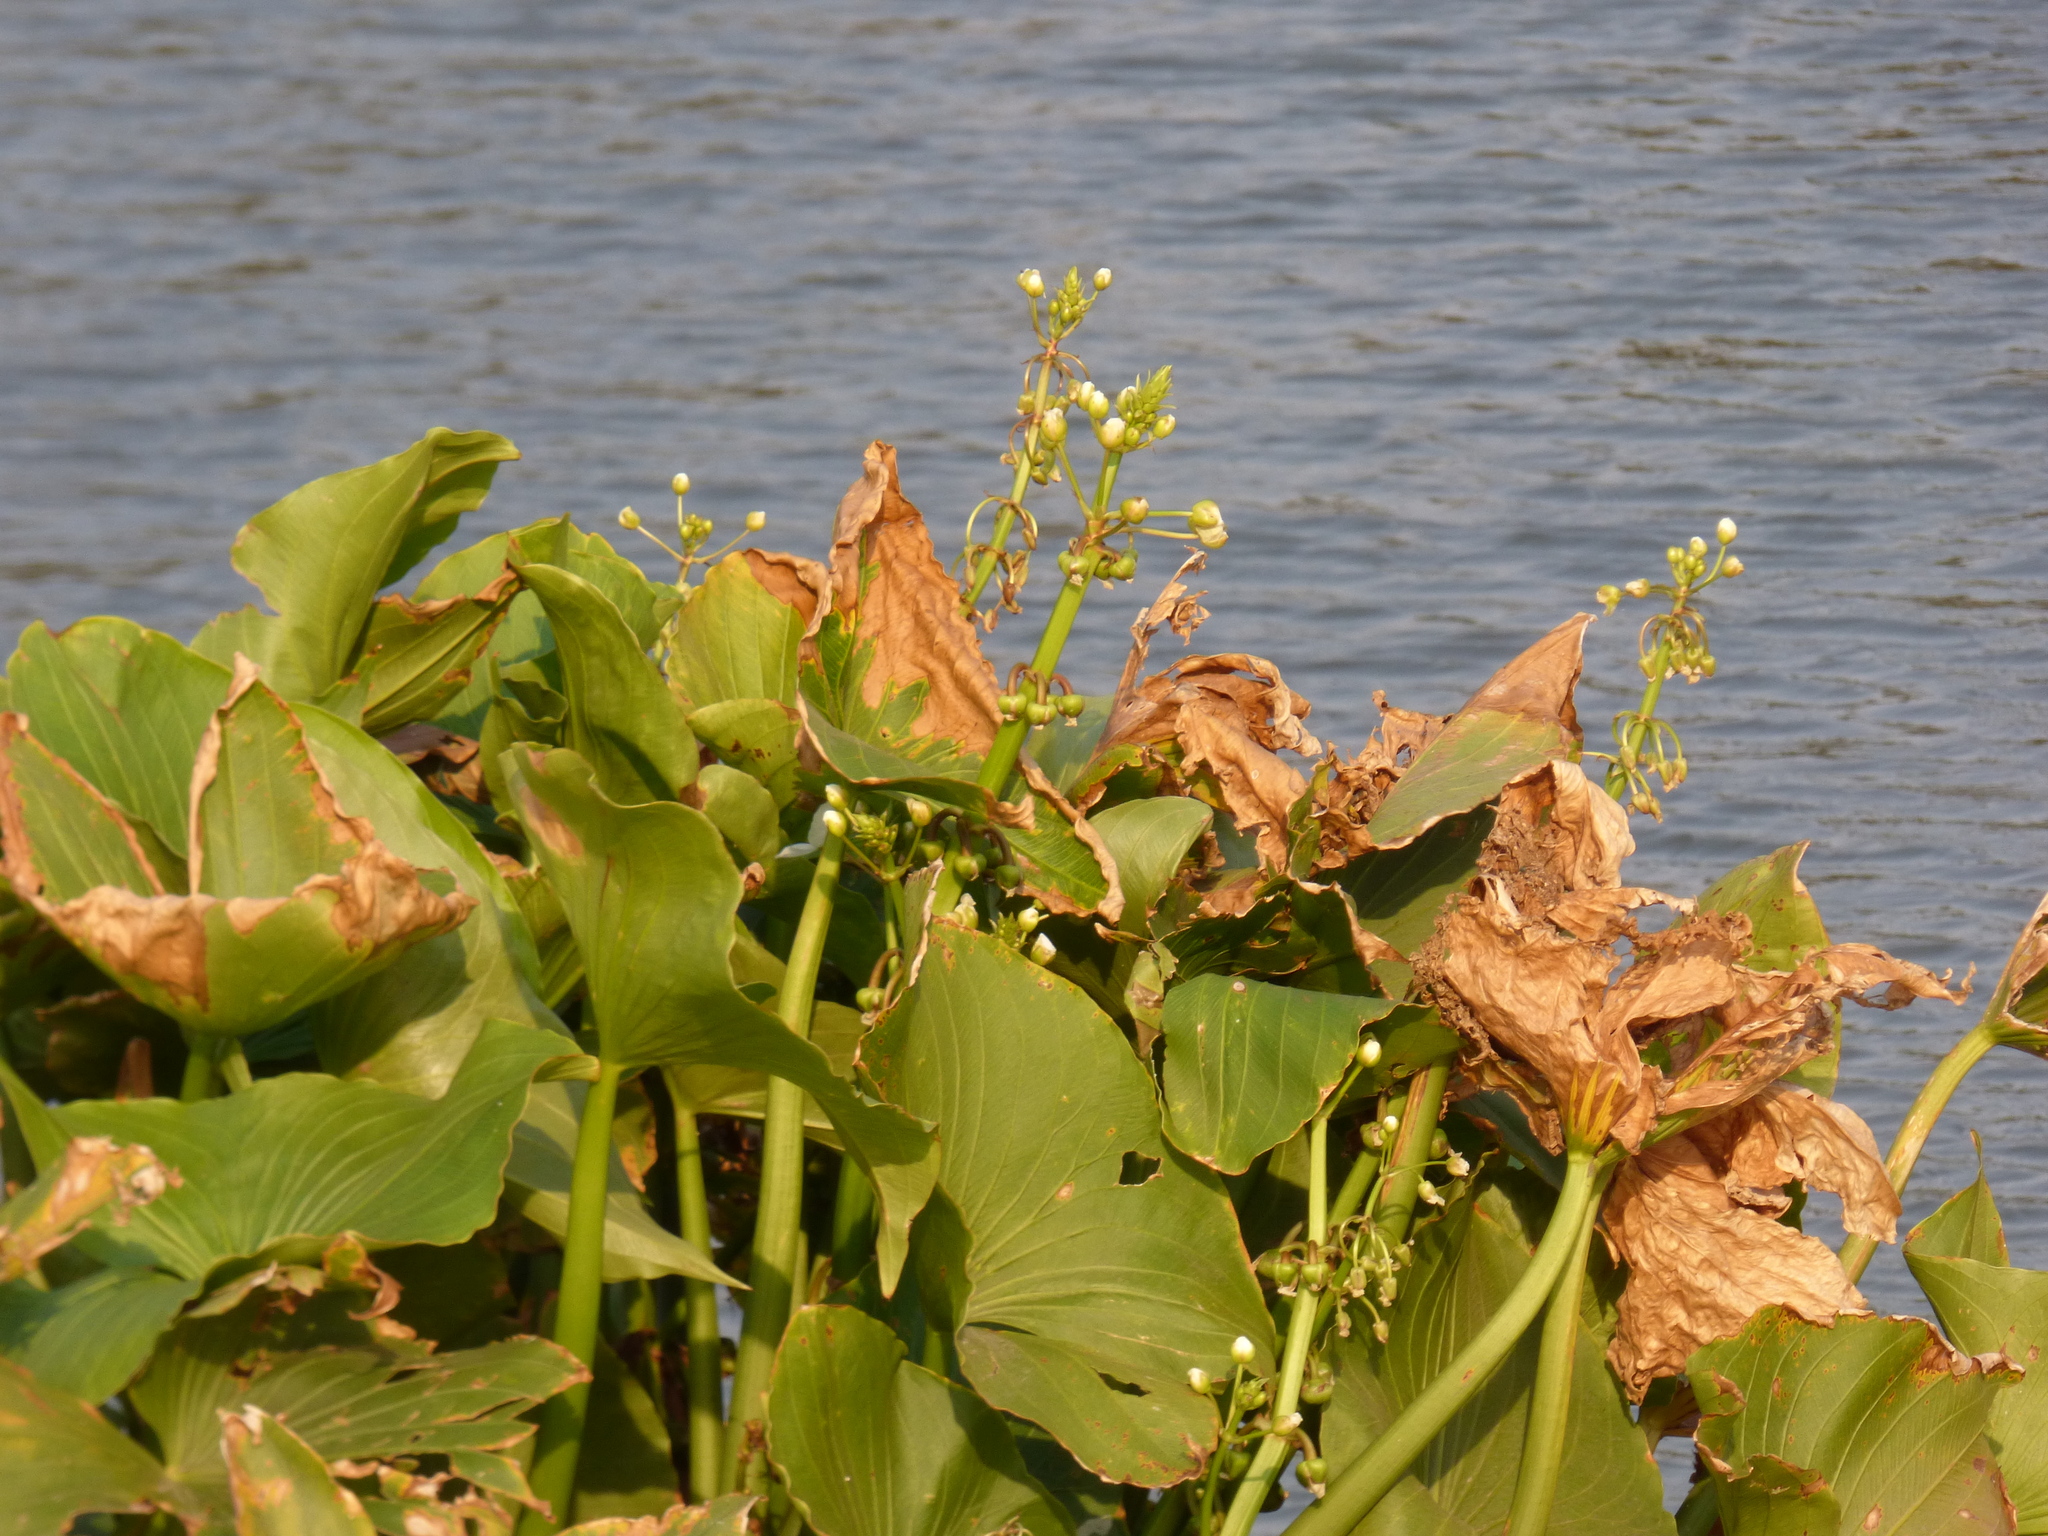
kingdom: Plantae
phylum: Tracheophyta
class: Liliopsida
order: Alismatales
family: Alismataceae
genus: Sagittaria
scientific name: Sagittaria montevidensis
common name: Giant arrowhead
